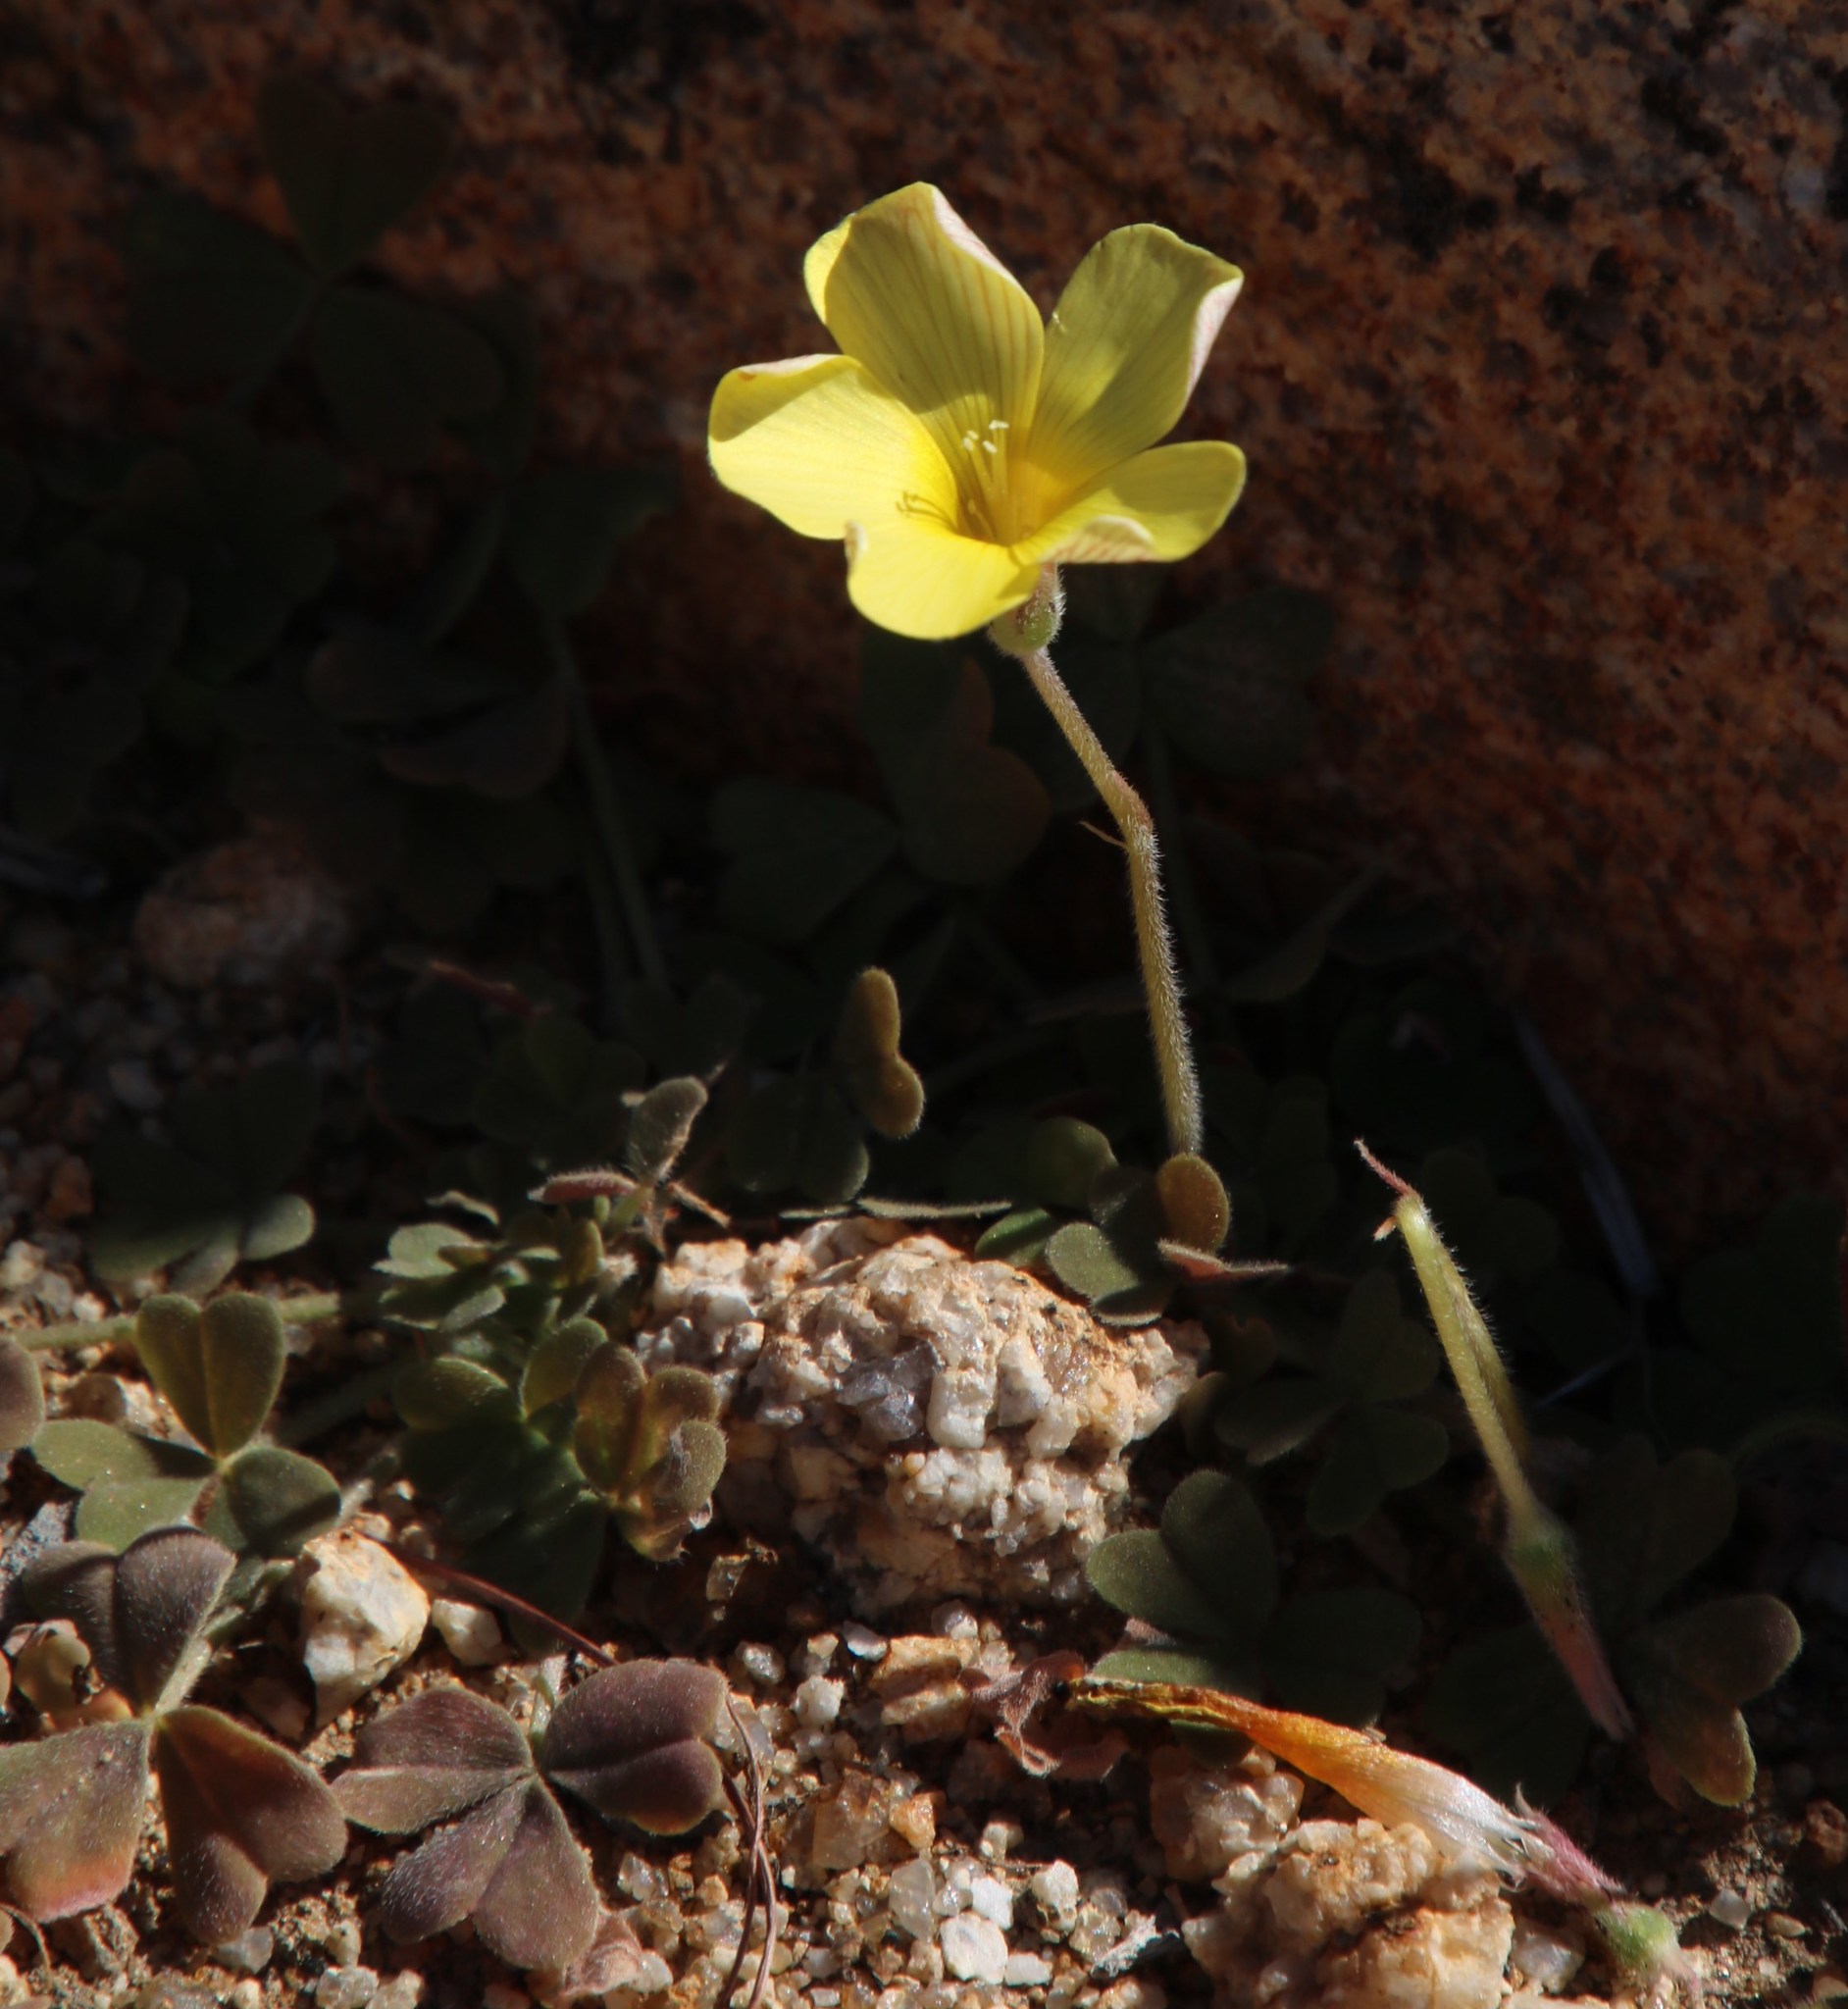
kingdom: Plantae
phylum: Tracheophyta
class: Magnoliopsida
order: Oxalidales
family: Oxalidaceae
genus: Oxalis
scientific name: Oxalis obtusa
